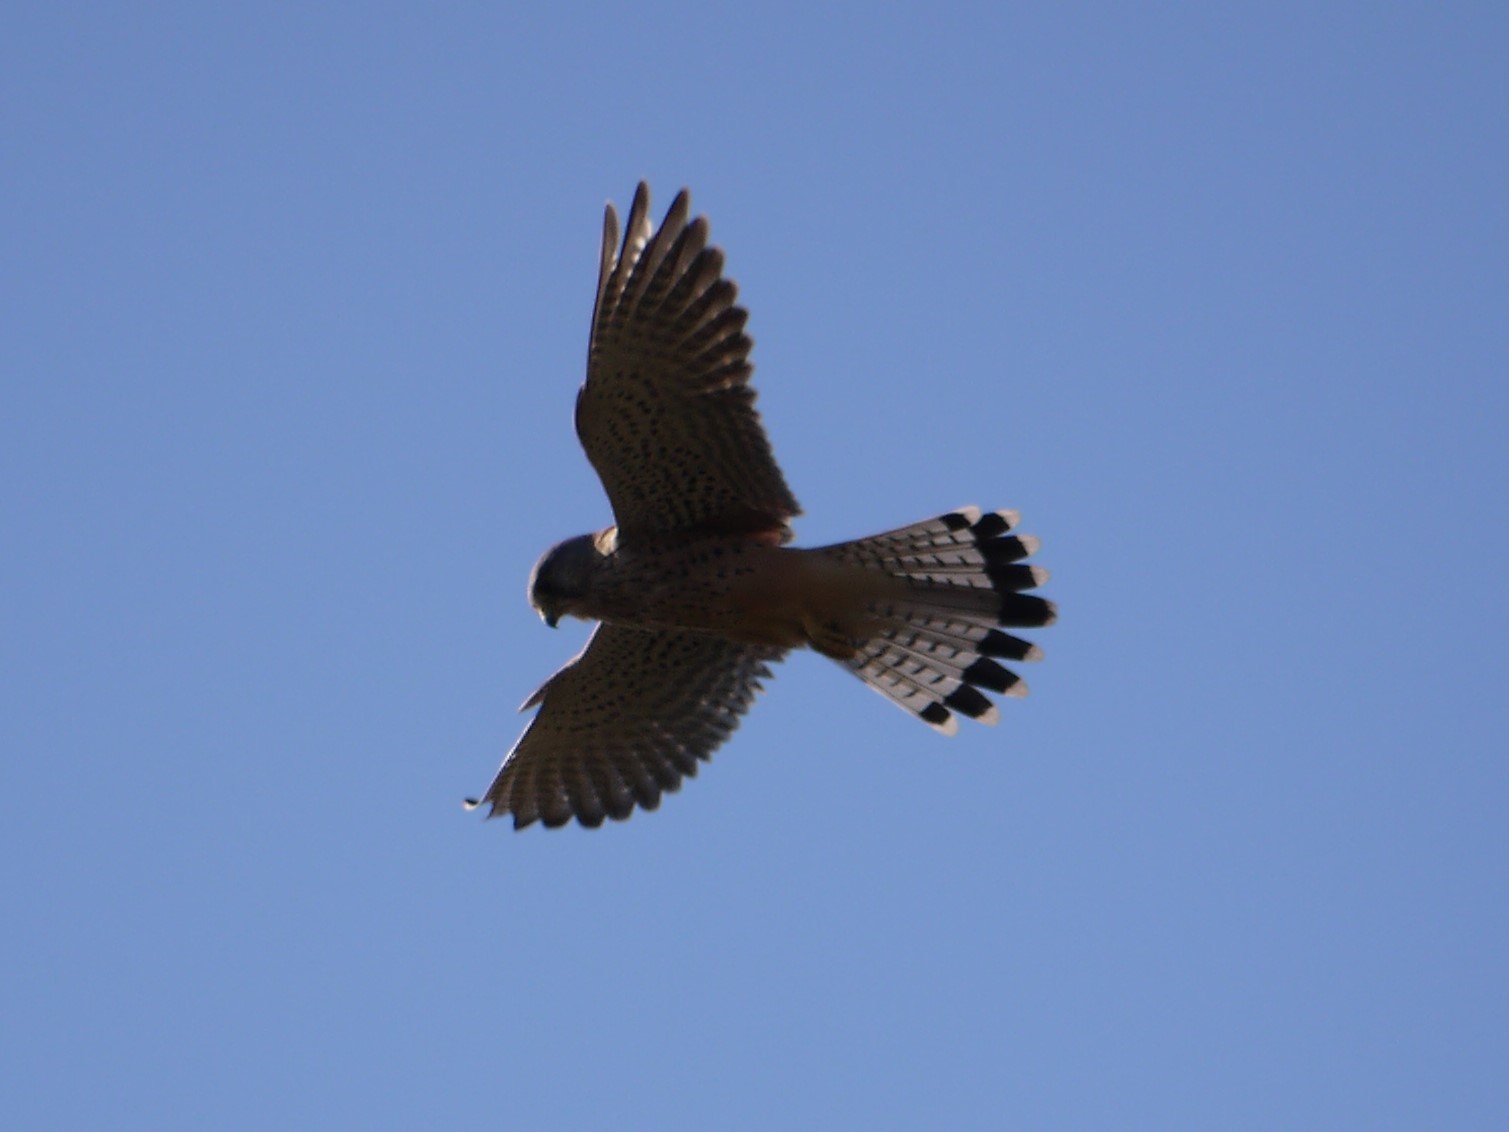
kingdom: Animalia
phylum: Chordata
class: Aves
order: Falconiformes
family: Falconidae
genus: Falco
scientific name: Falco tinnunculus
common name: Common kestrel
